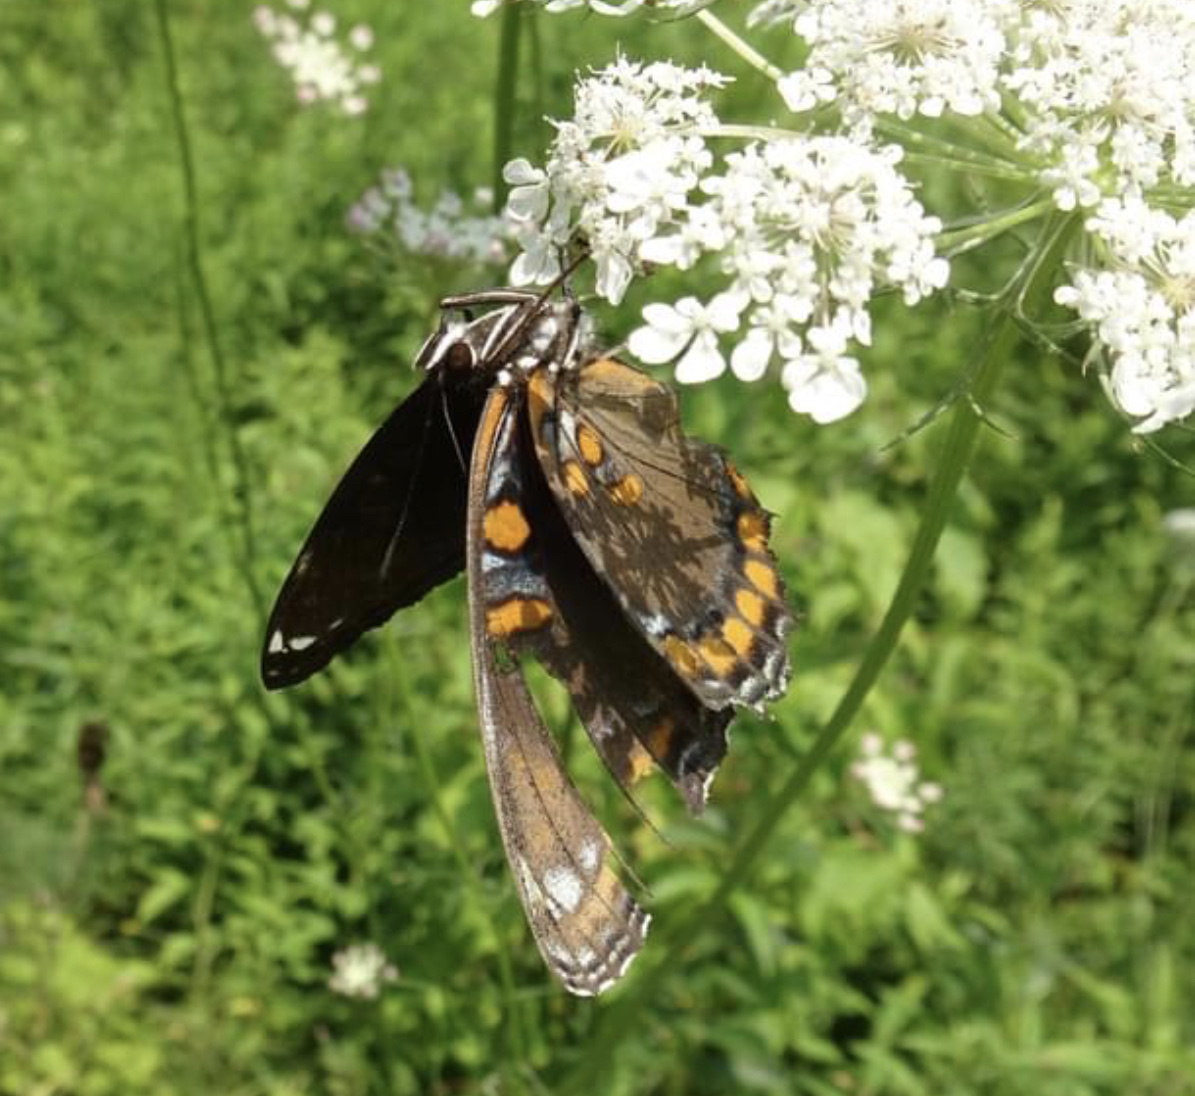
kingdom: Animalia
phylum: Arthropoda
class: Insecta
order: Lepidoptera
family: Nymphalidae
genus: Limenitis
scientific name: Limenitis
